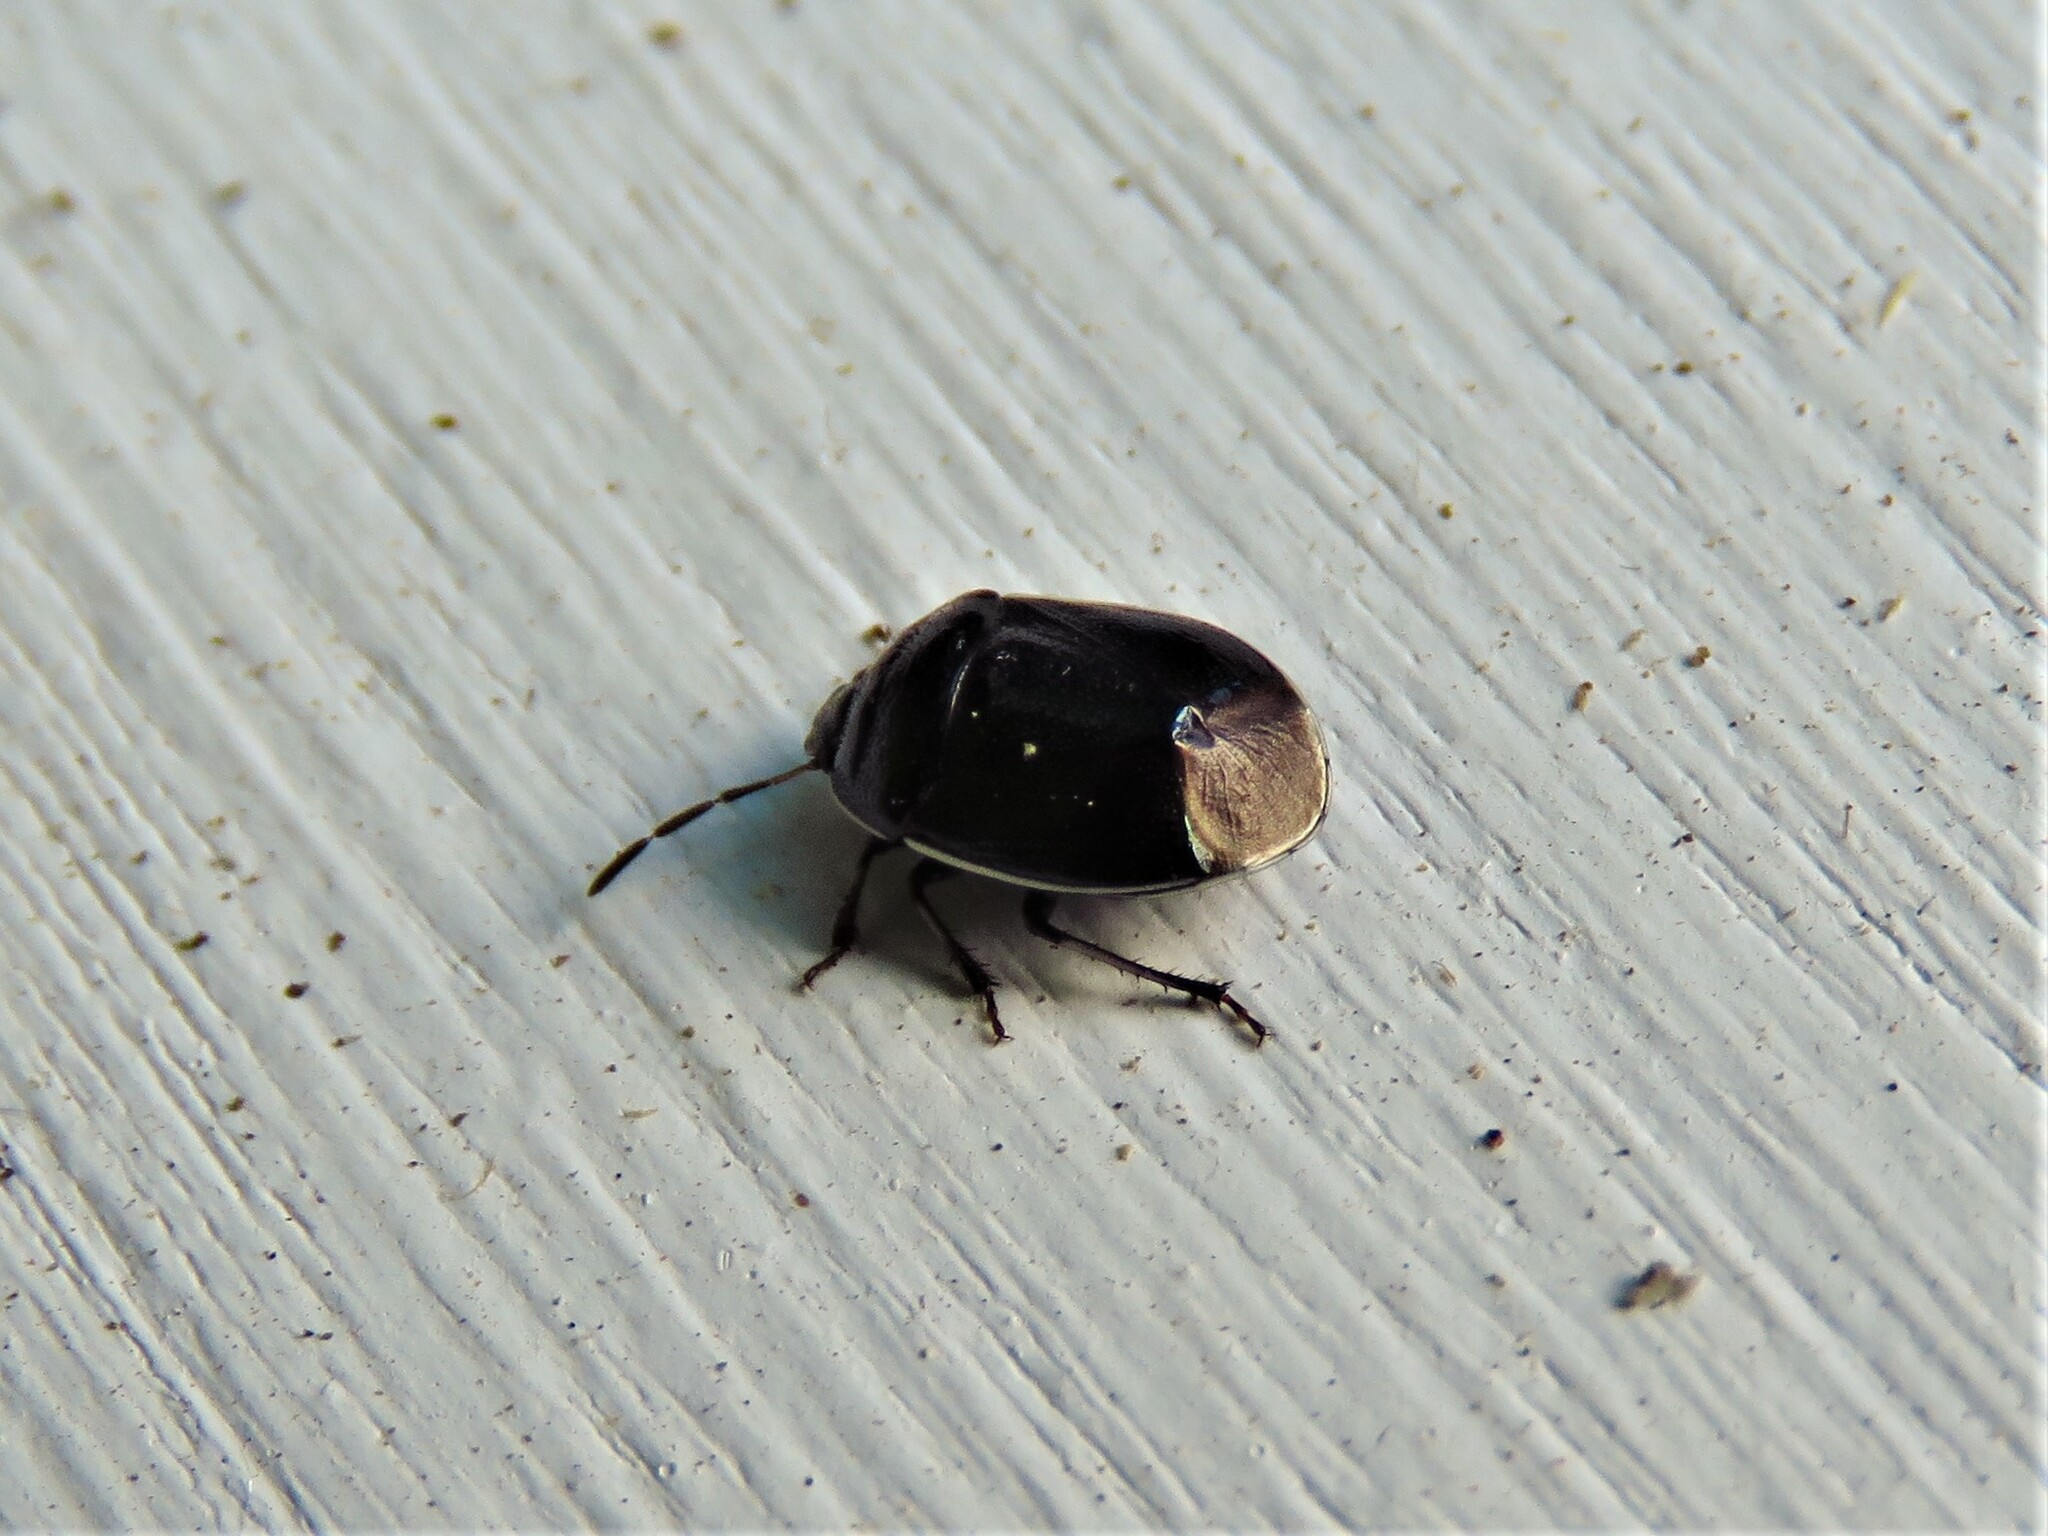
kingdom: Animalia
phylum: Arthropoda
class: Insecta
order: Hemiptera
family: Cydnidae
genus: Sehirus
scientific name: Sehirus cinctus
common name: White-margined burrower bug
